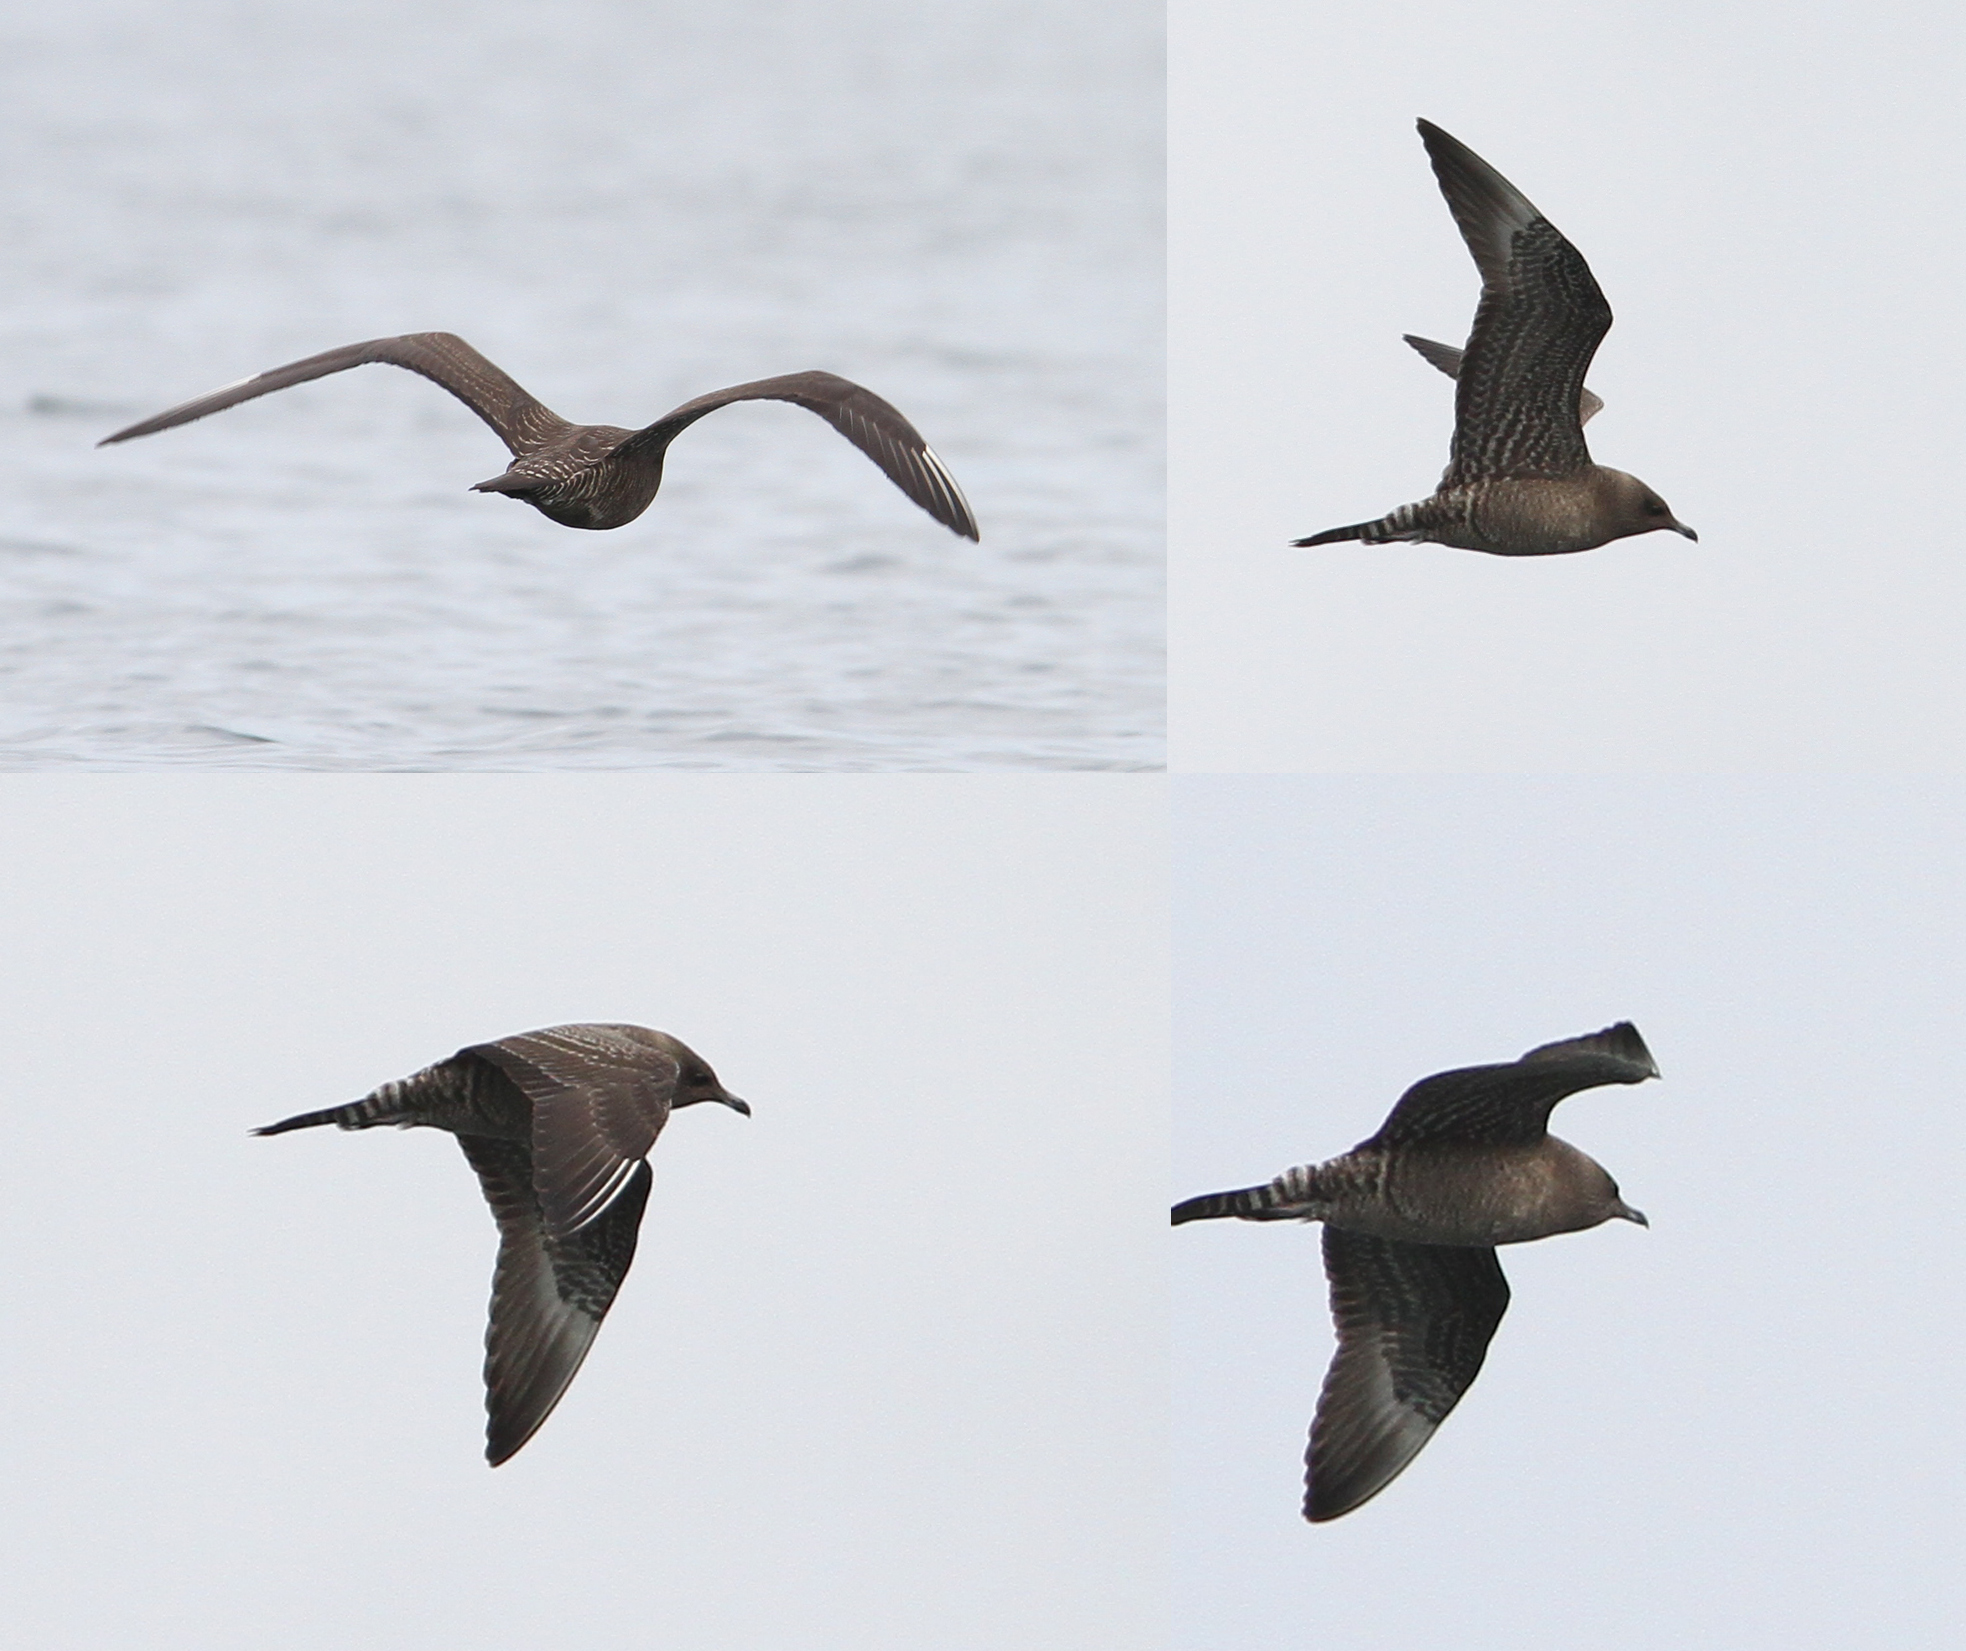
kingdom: Animalia
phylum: Chordata
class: Aves
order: Charadriiformes
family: Stercorariidae
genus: Stercorarius
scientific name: Stercorarius longicaudus
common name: Long-tailed jaeger
